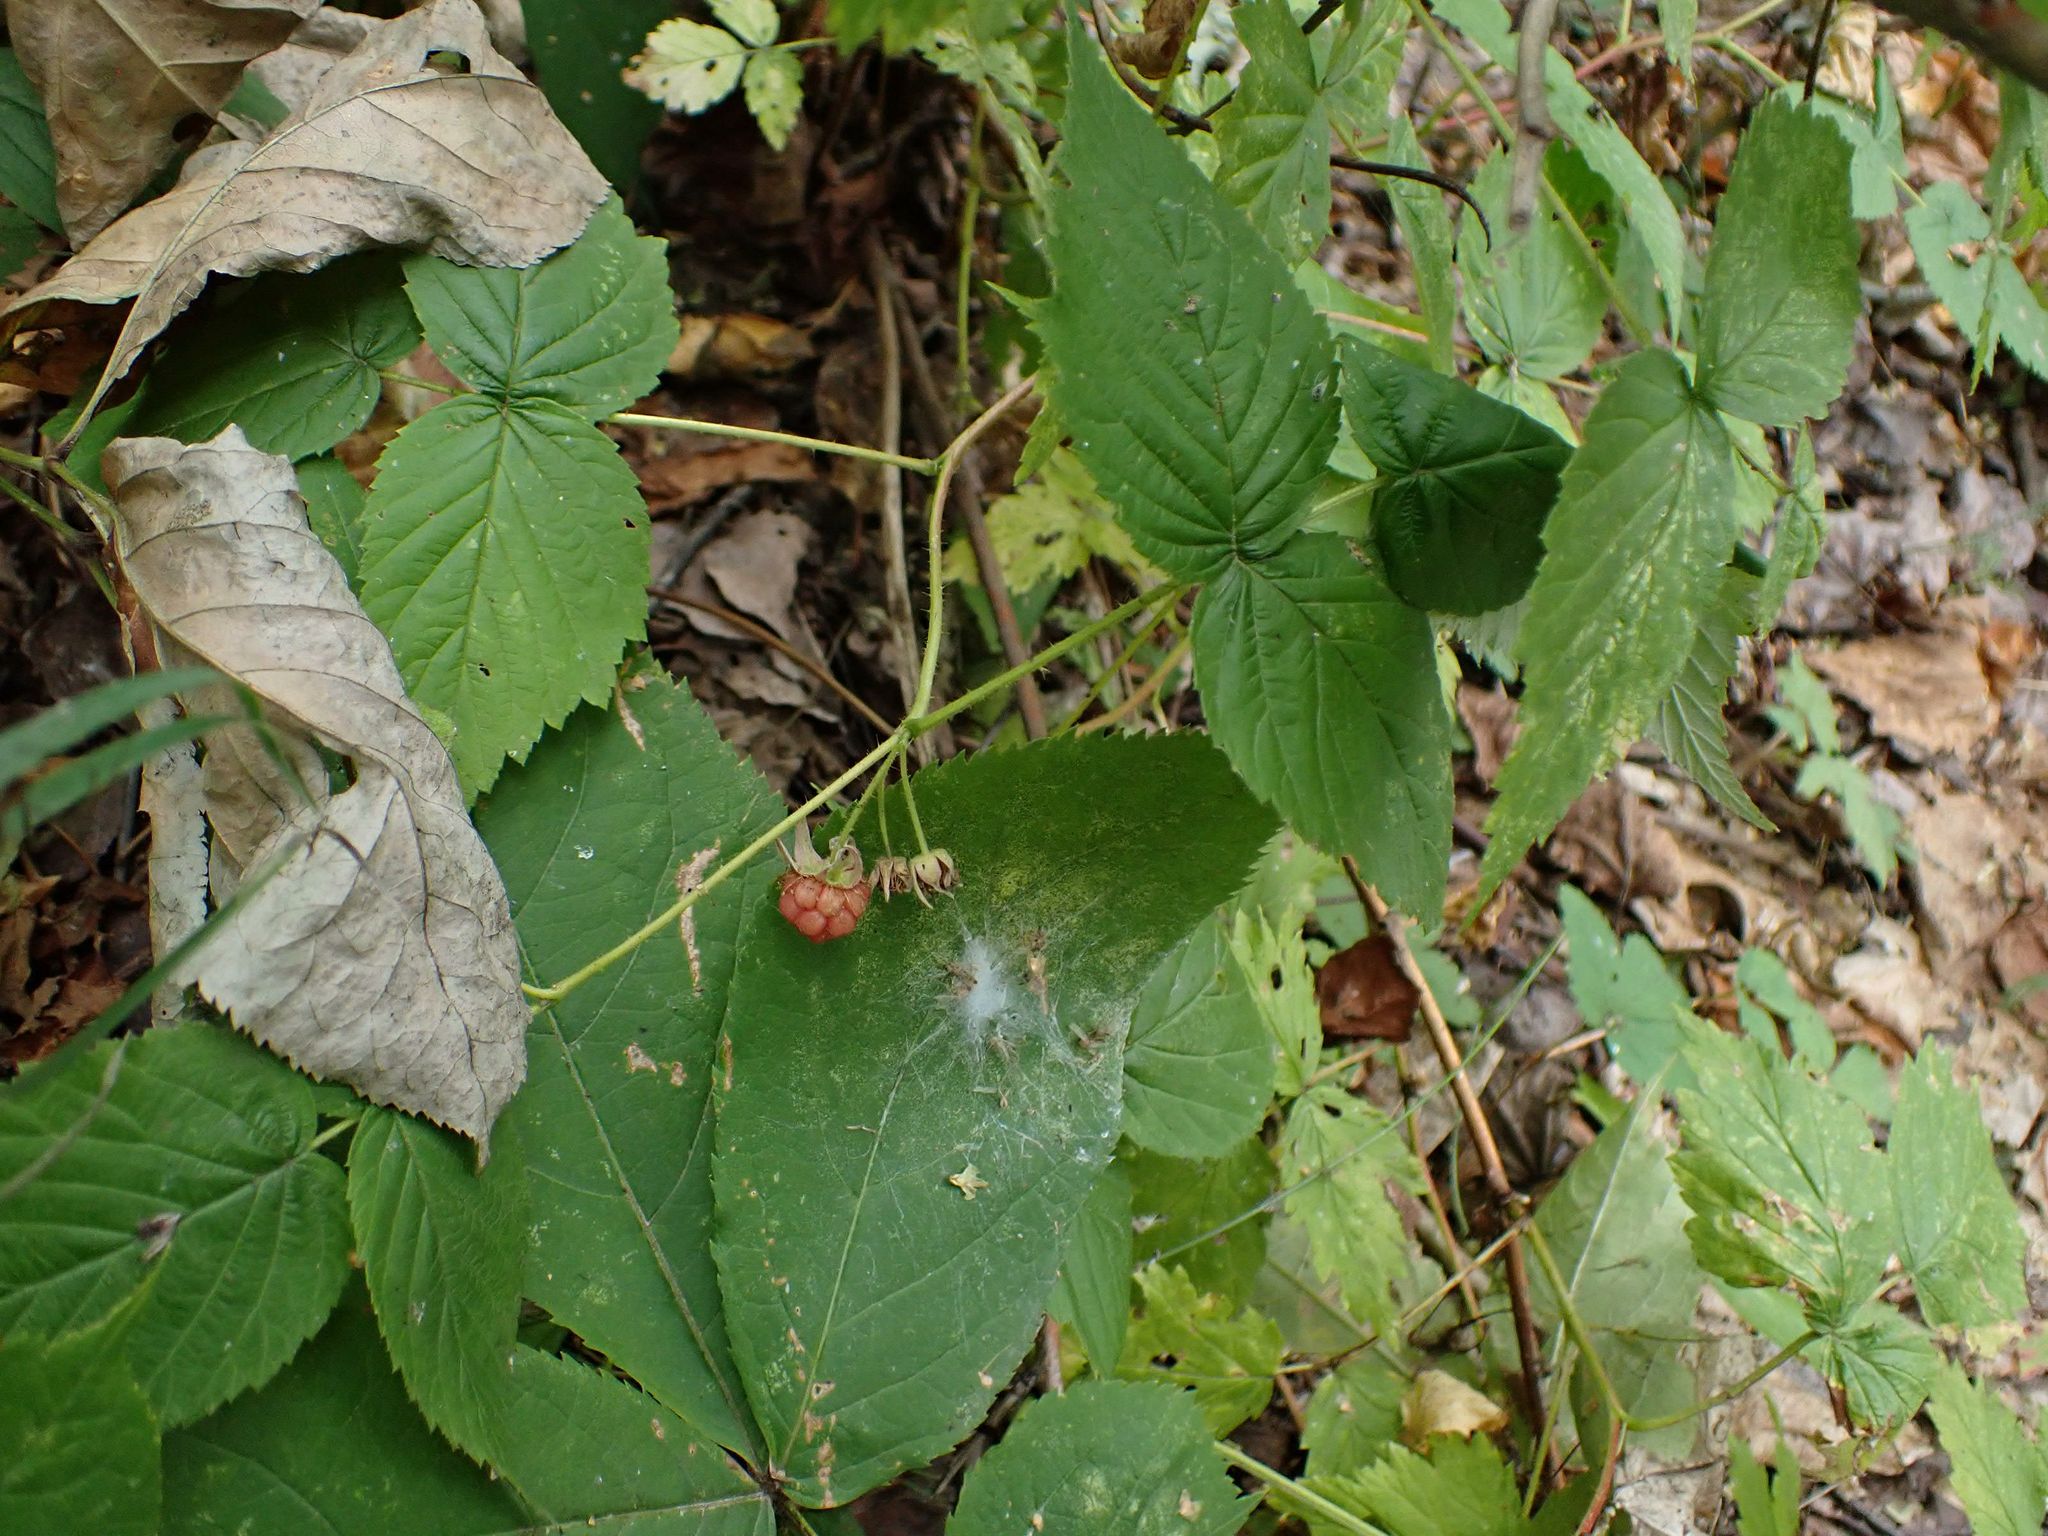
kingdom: Plantae
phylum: Tracheophyta
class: Magnoliopsida
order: Rosales
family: Rosaceae
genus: Rubus
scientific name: Rubus idaeus
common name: Raspberry
